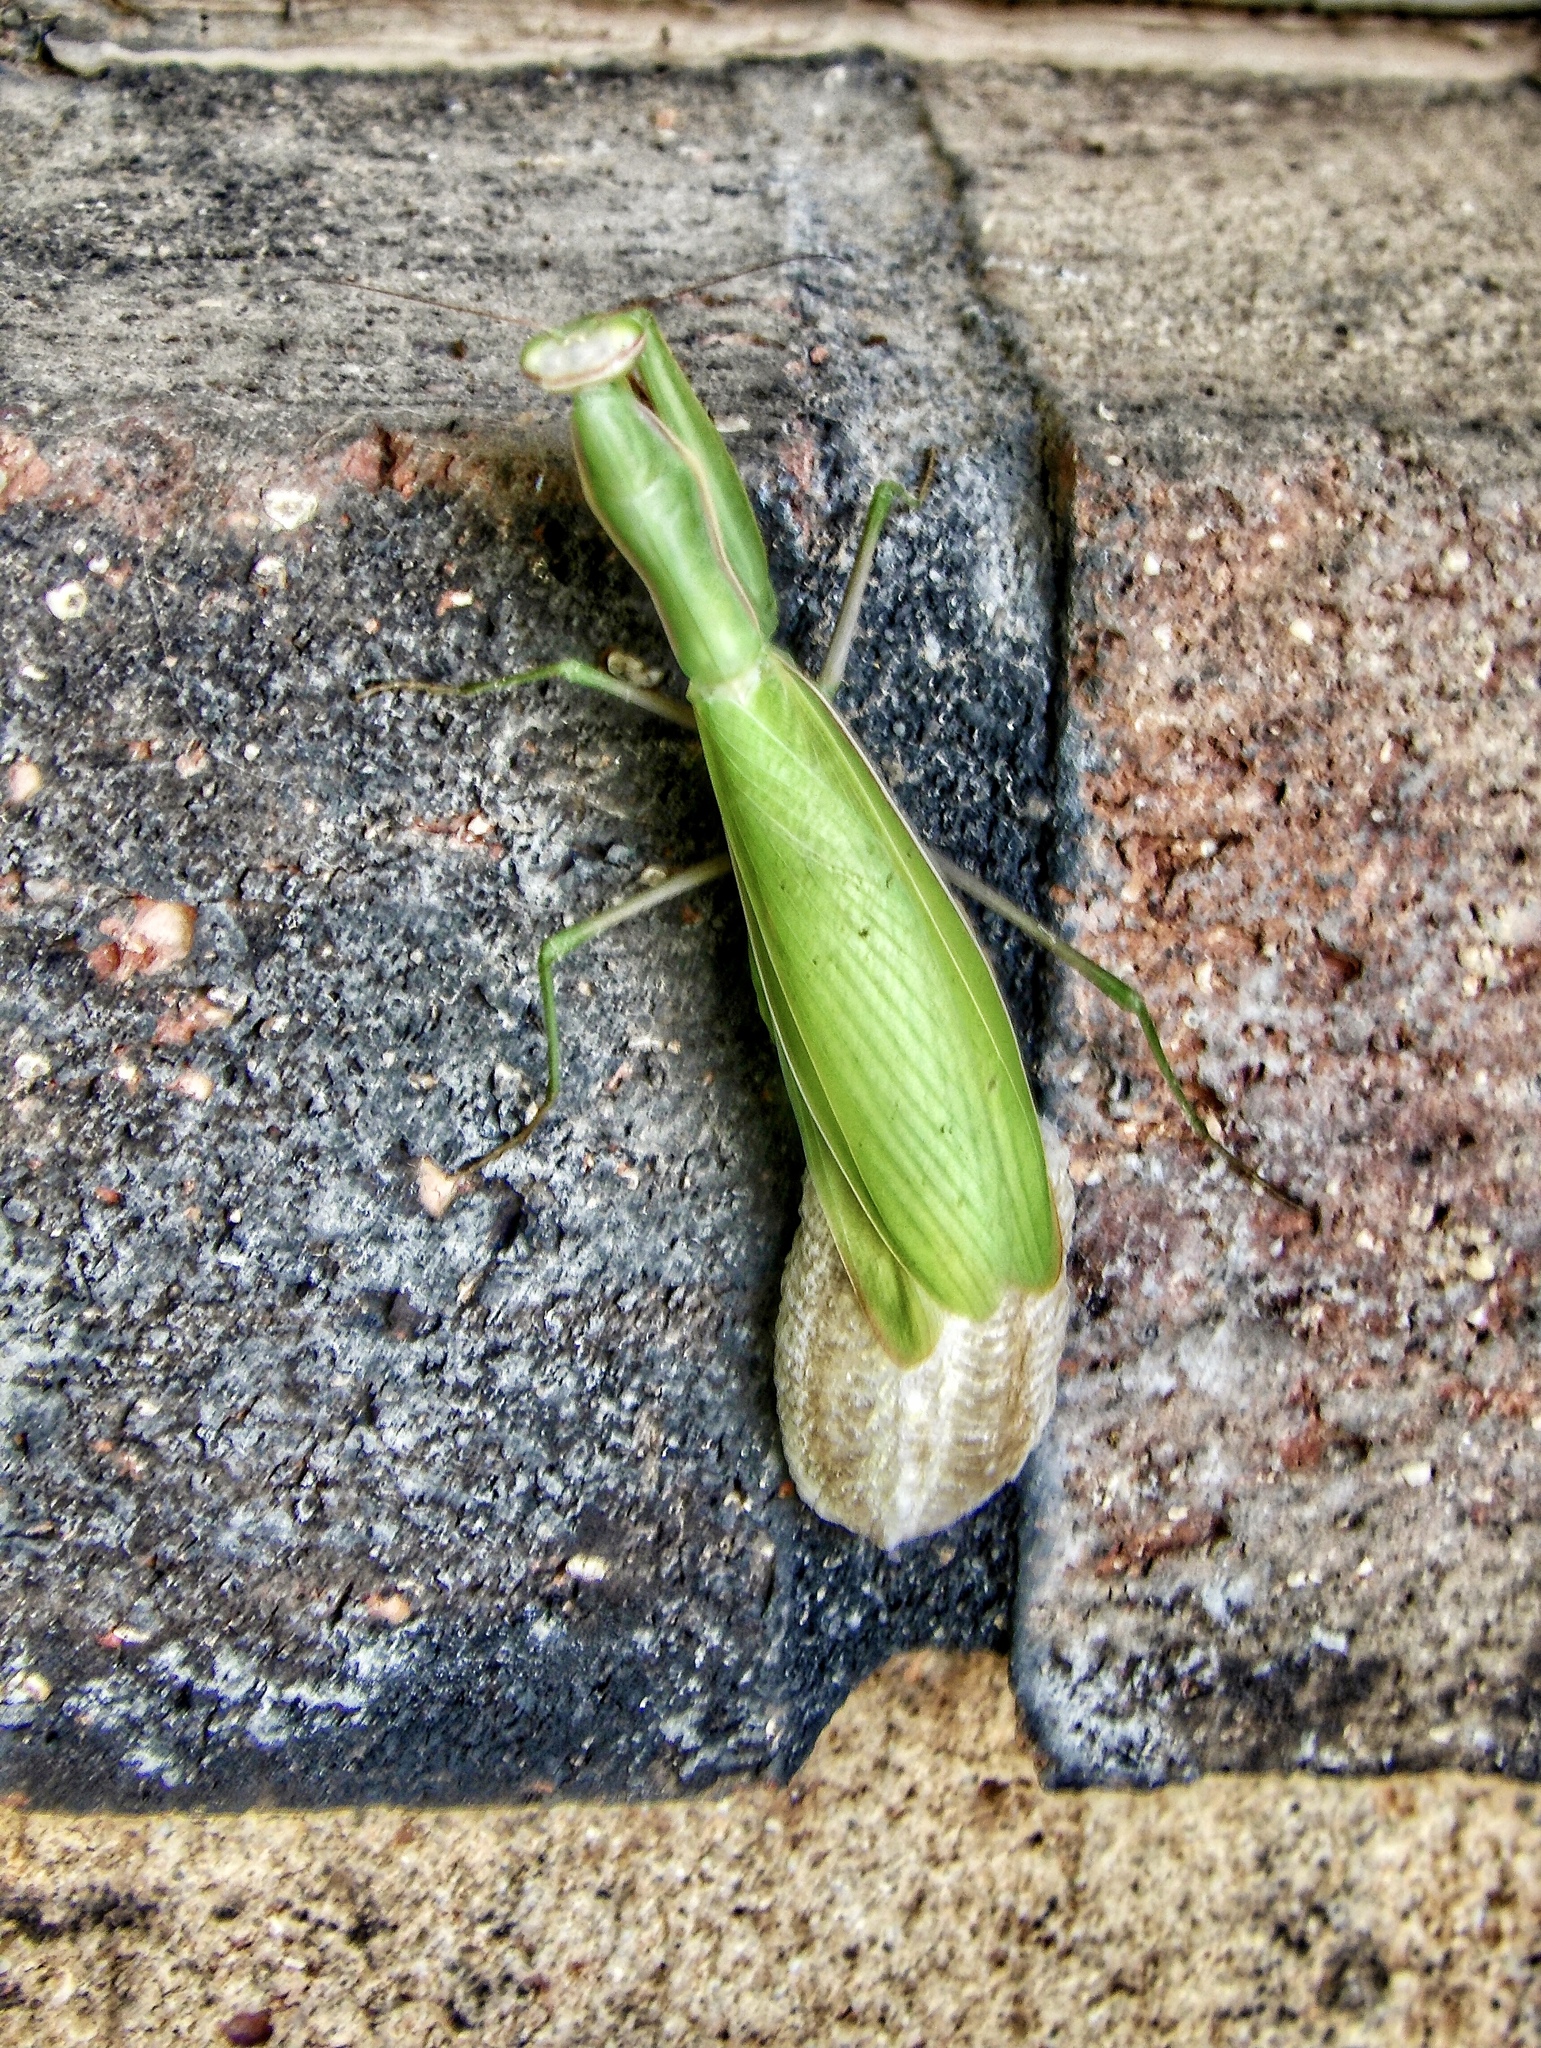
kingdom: Animalia
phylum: Arthropoda
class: Insecta
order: Mantodea
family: Mantidae
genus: Mantis
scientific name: Mantis religiosa
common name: Praying mantis
